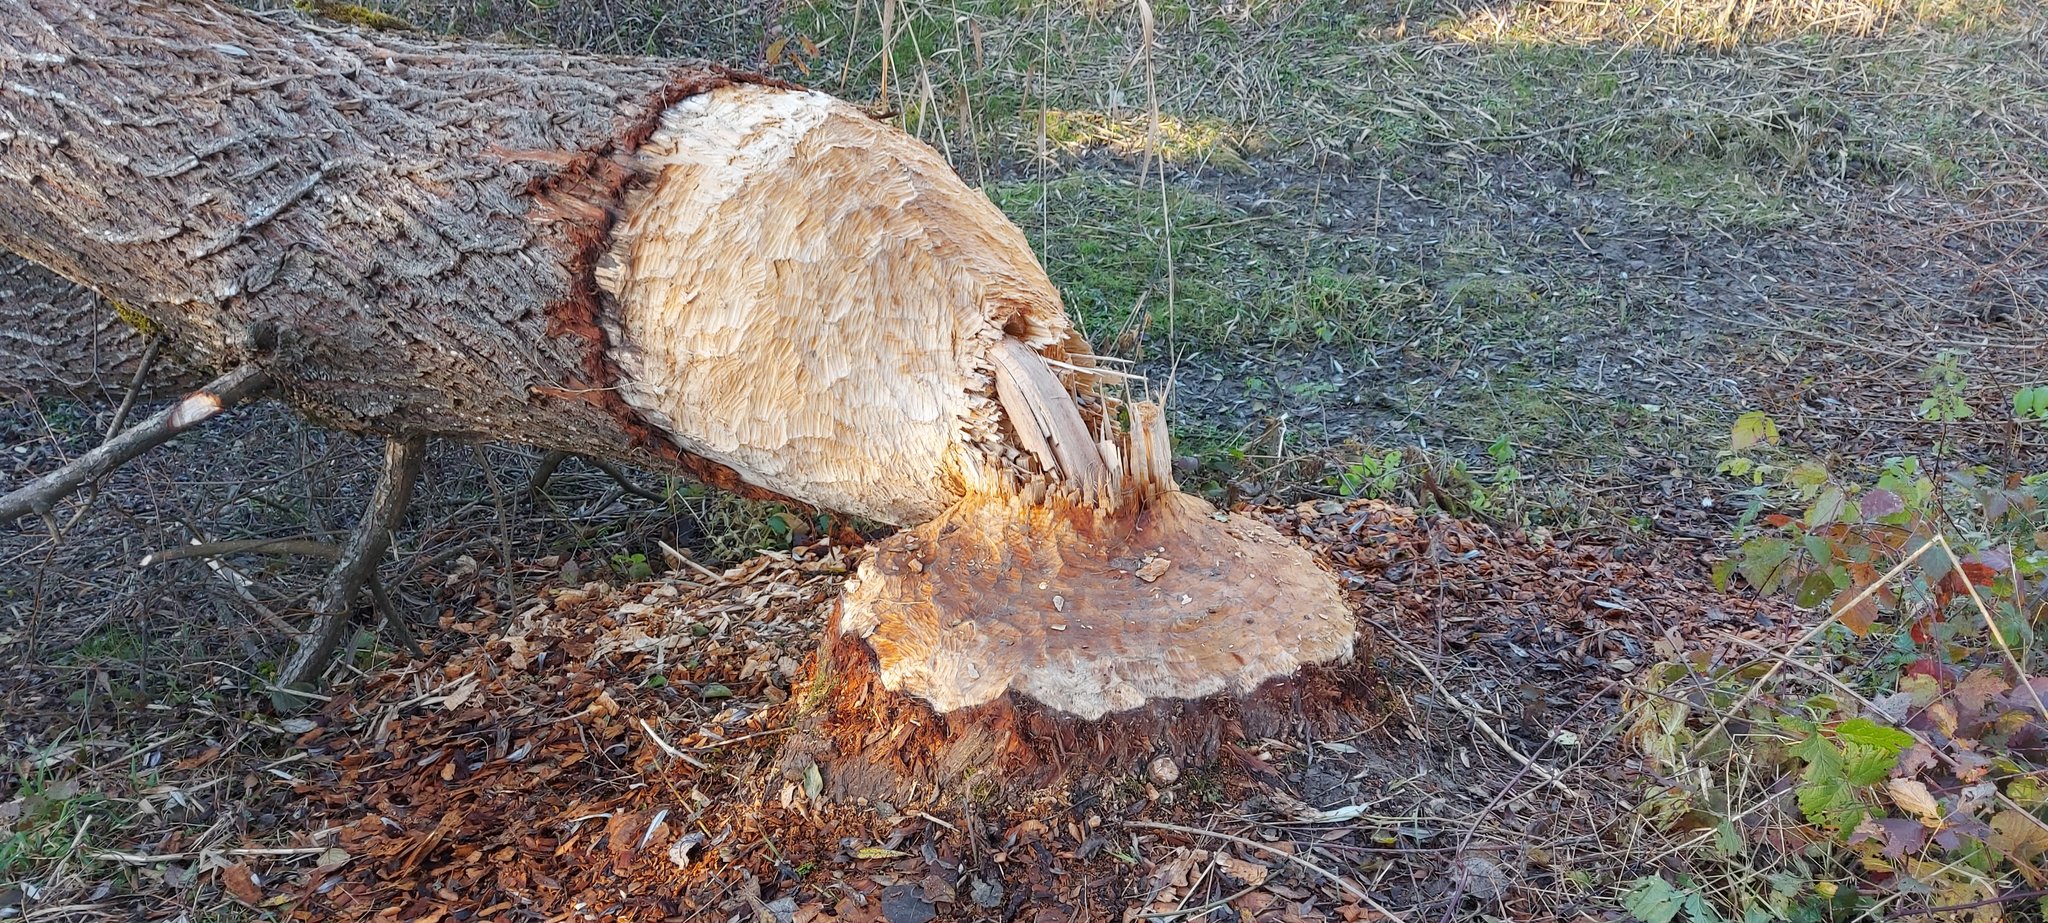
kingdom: Animalia
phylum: Chordata
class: Mammalia
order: Rodentia
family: Castoridae
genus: Castor
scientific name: Castor fiber
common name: Eurasian beaver
